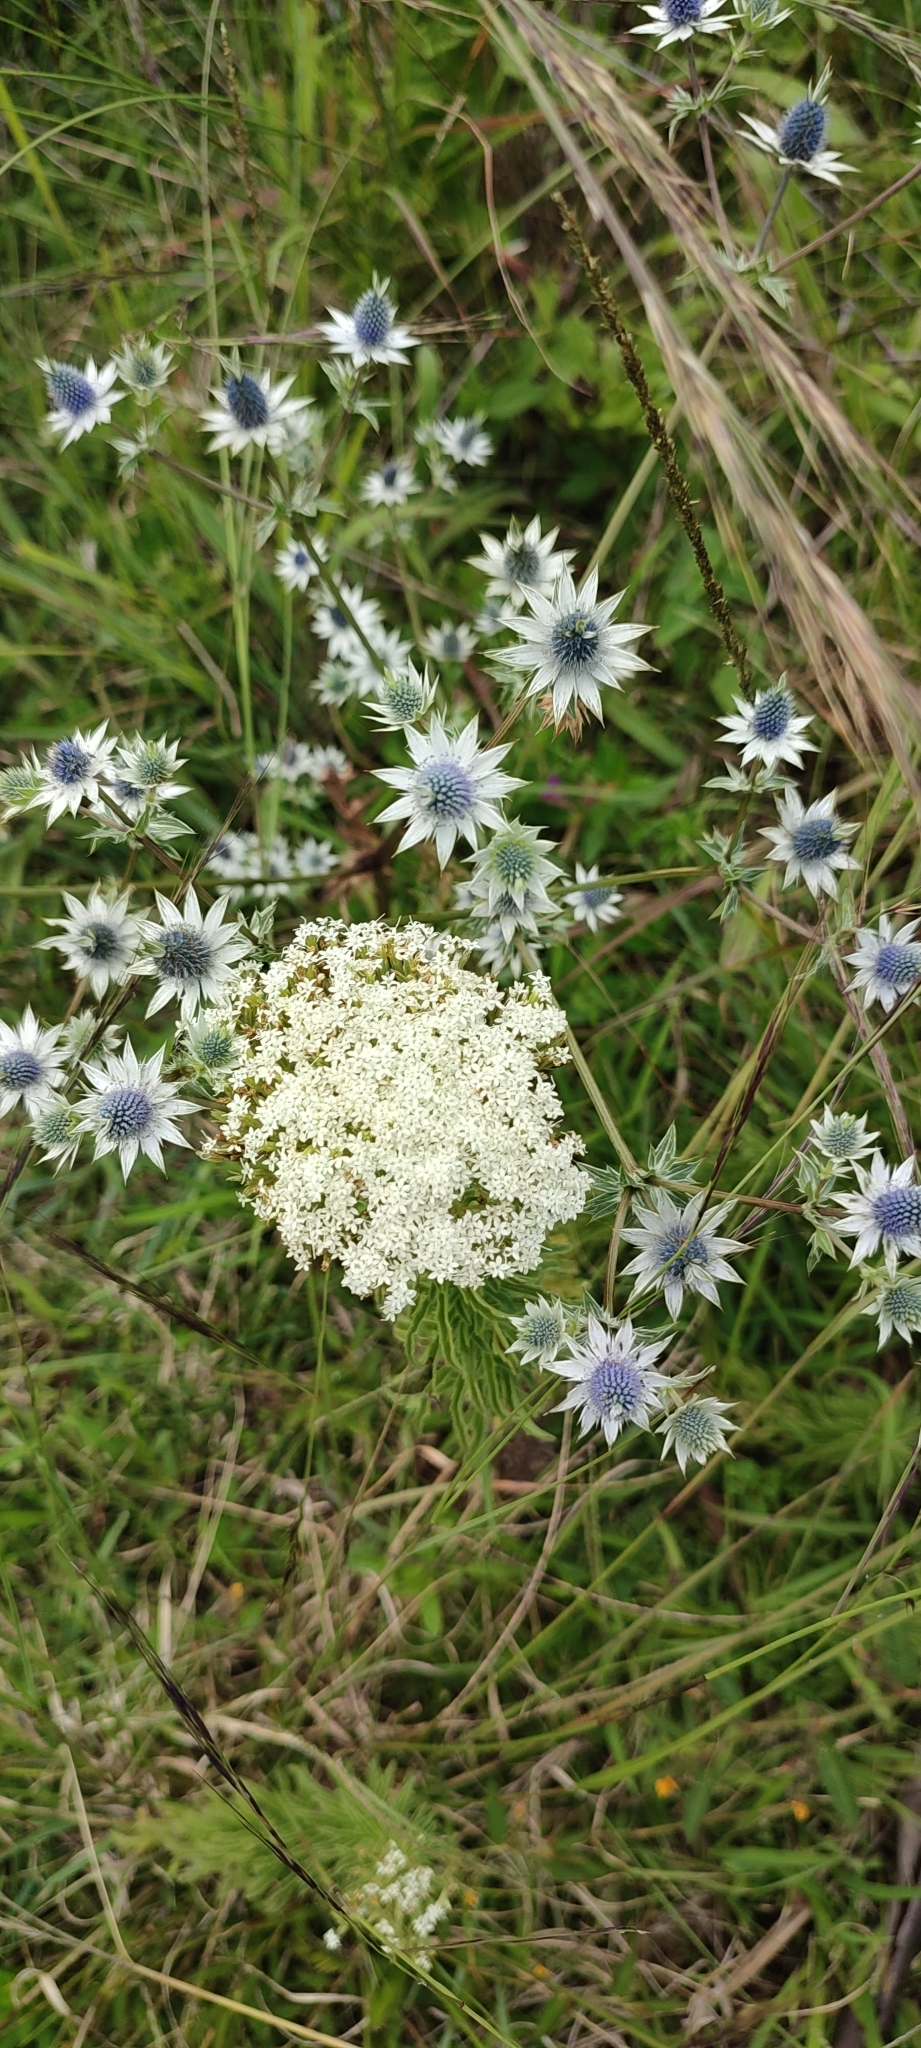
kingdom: Plantae
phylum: Tracheophyta
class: Magnoliopsida
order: Asterales
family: Asteraceae
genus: Stevia
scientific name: Stevia serrata
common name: Sawtooth candyleaf
